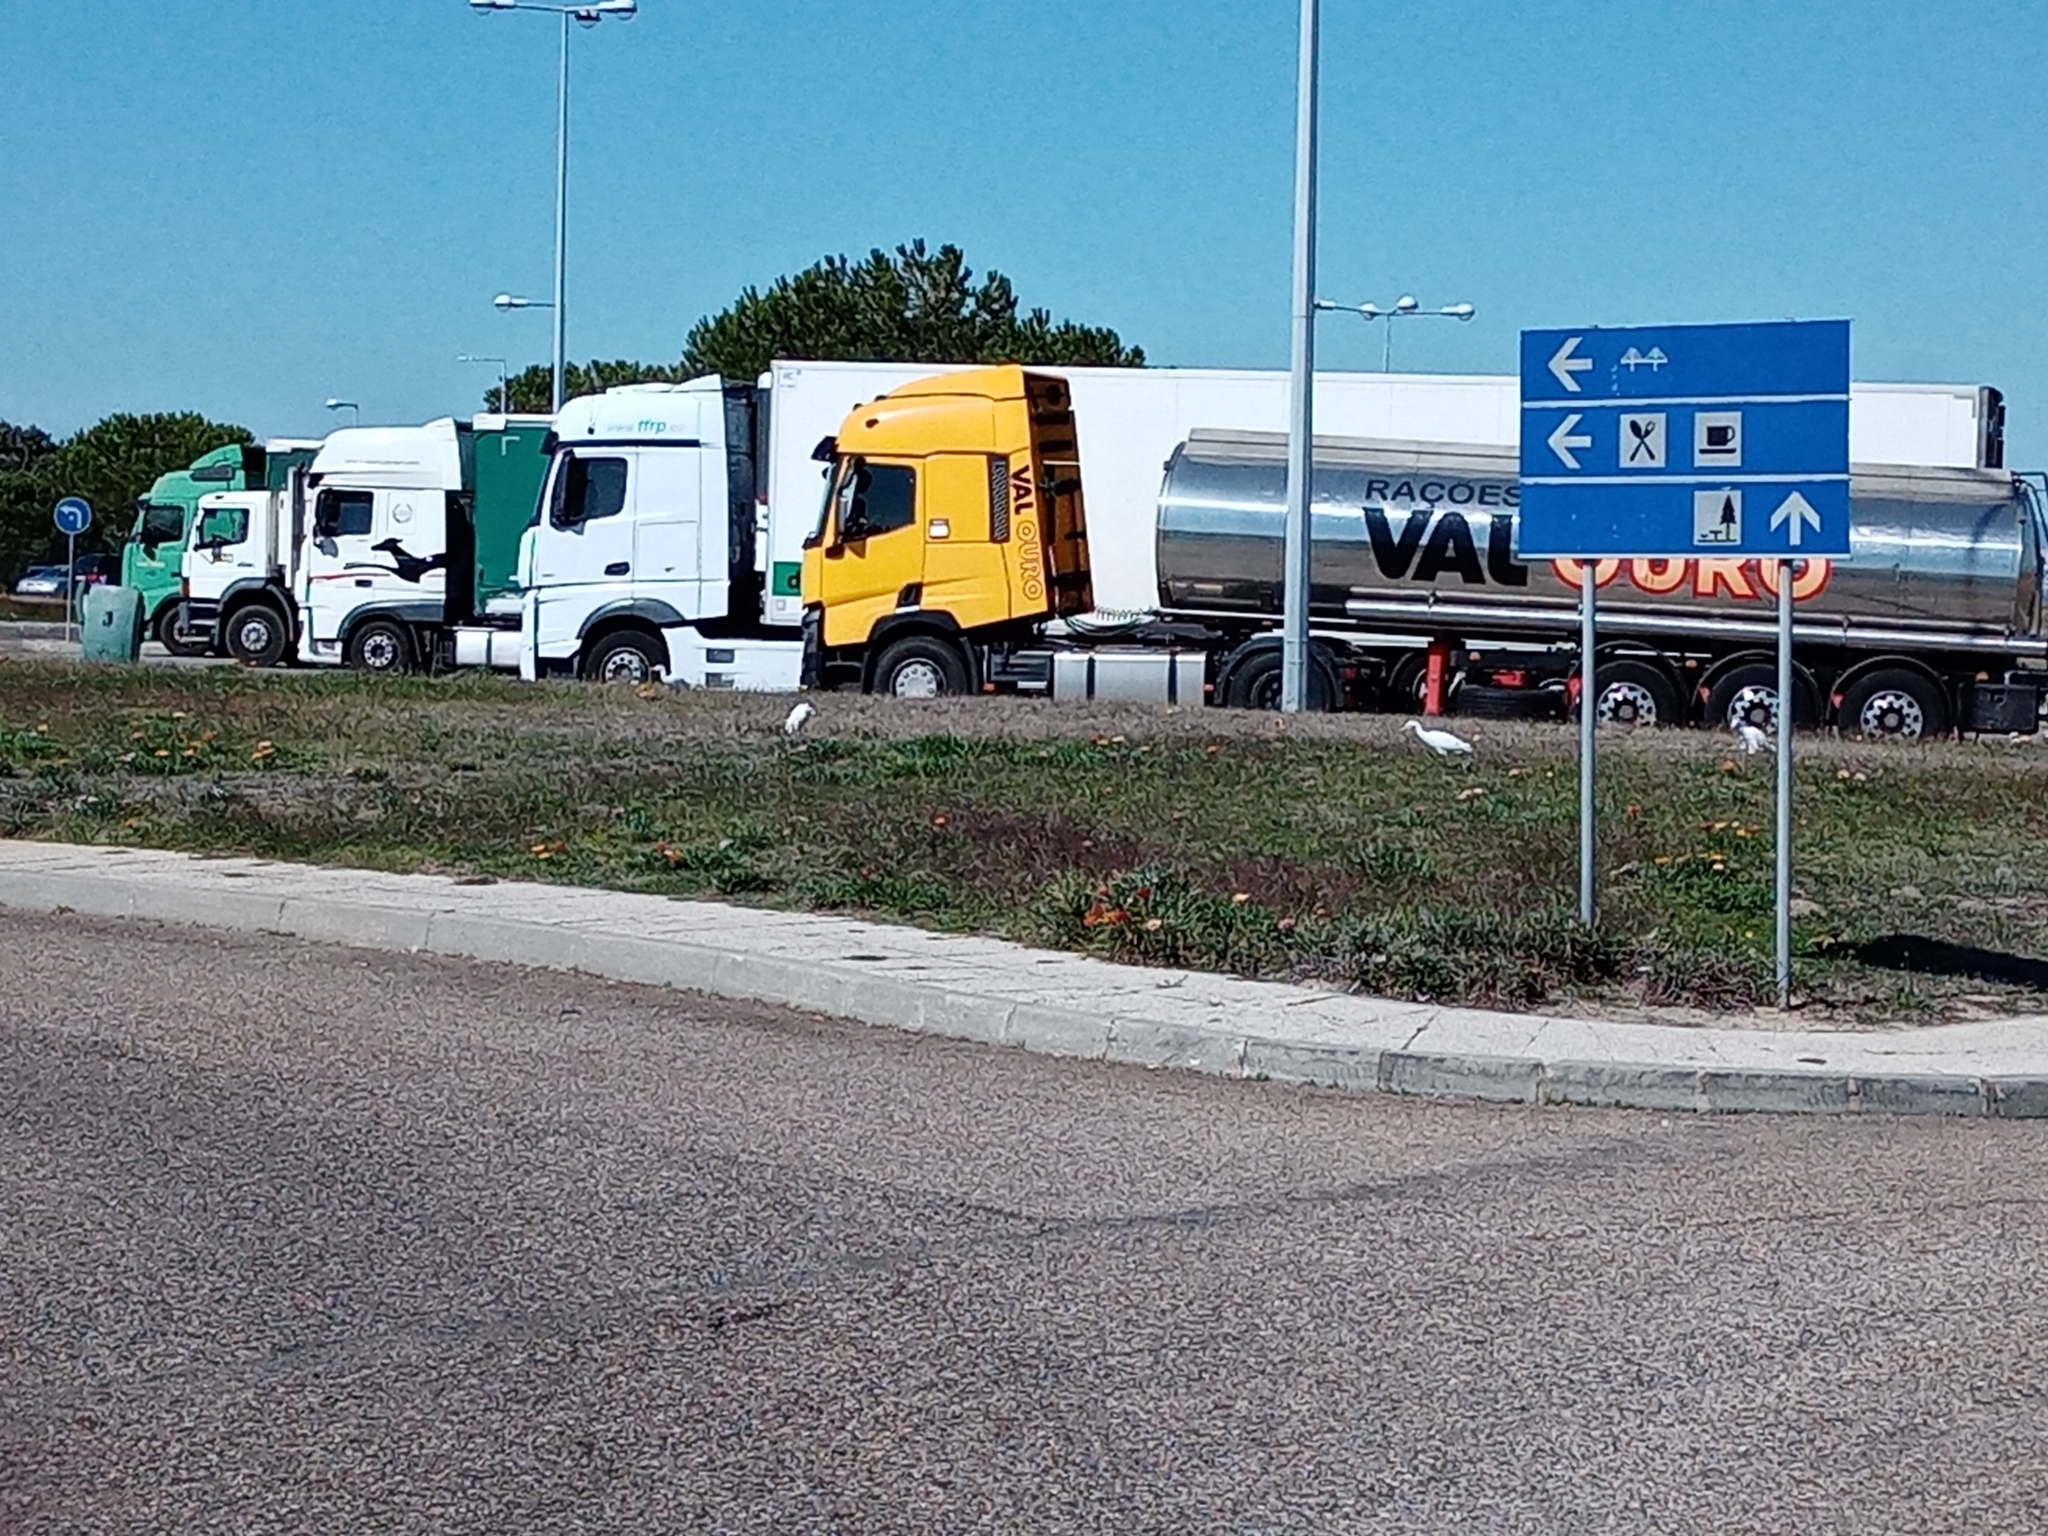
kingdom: Animalia
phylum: Chordata
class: Aves
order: Pelecaniformes
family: Ardeidae
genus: Bubulcus
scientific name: Bubulcus ibis
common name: Cattle egret
